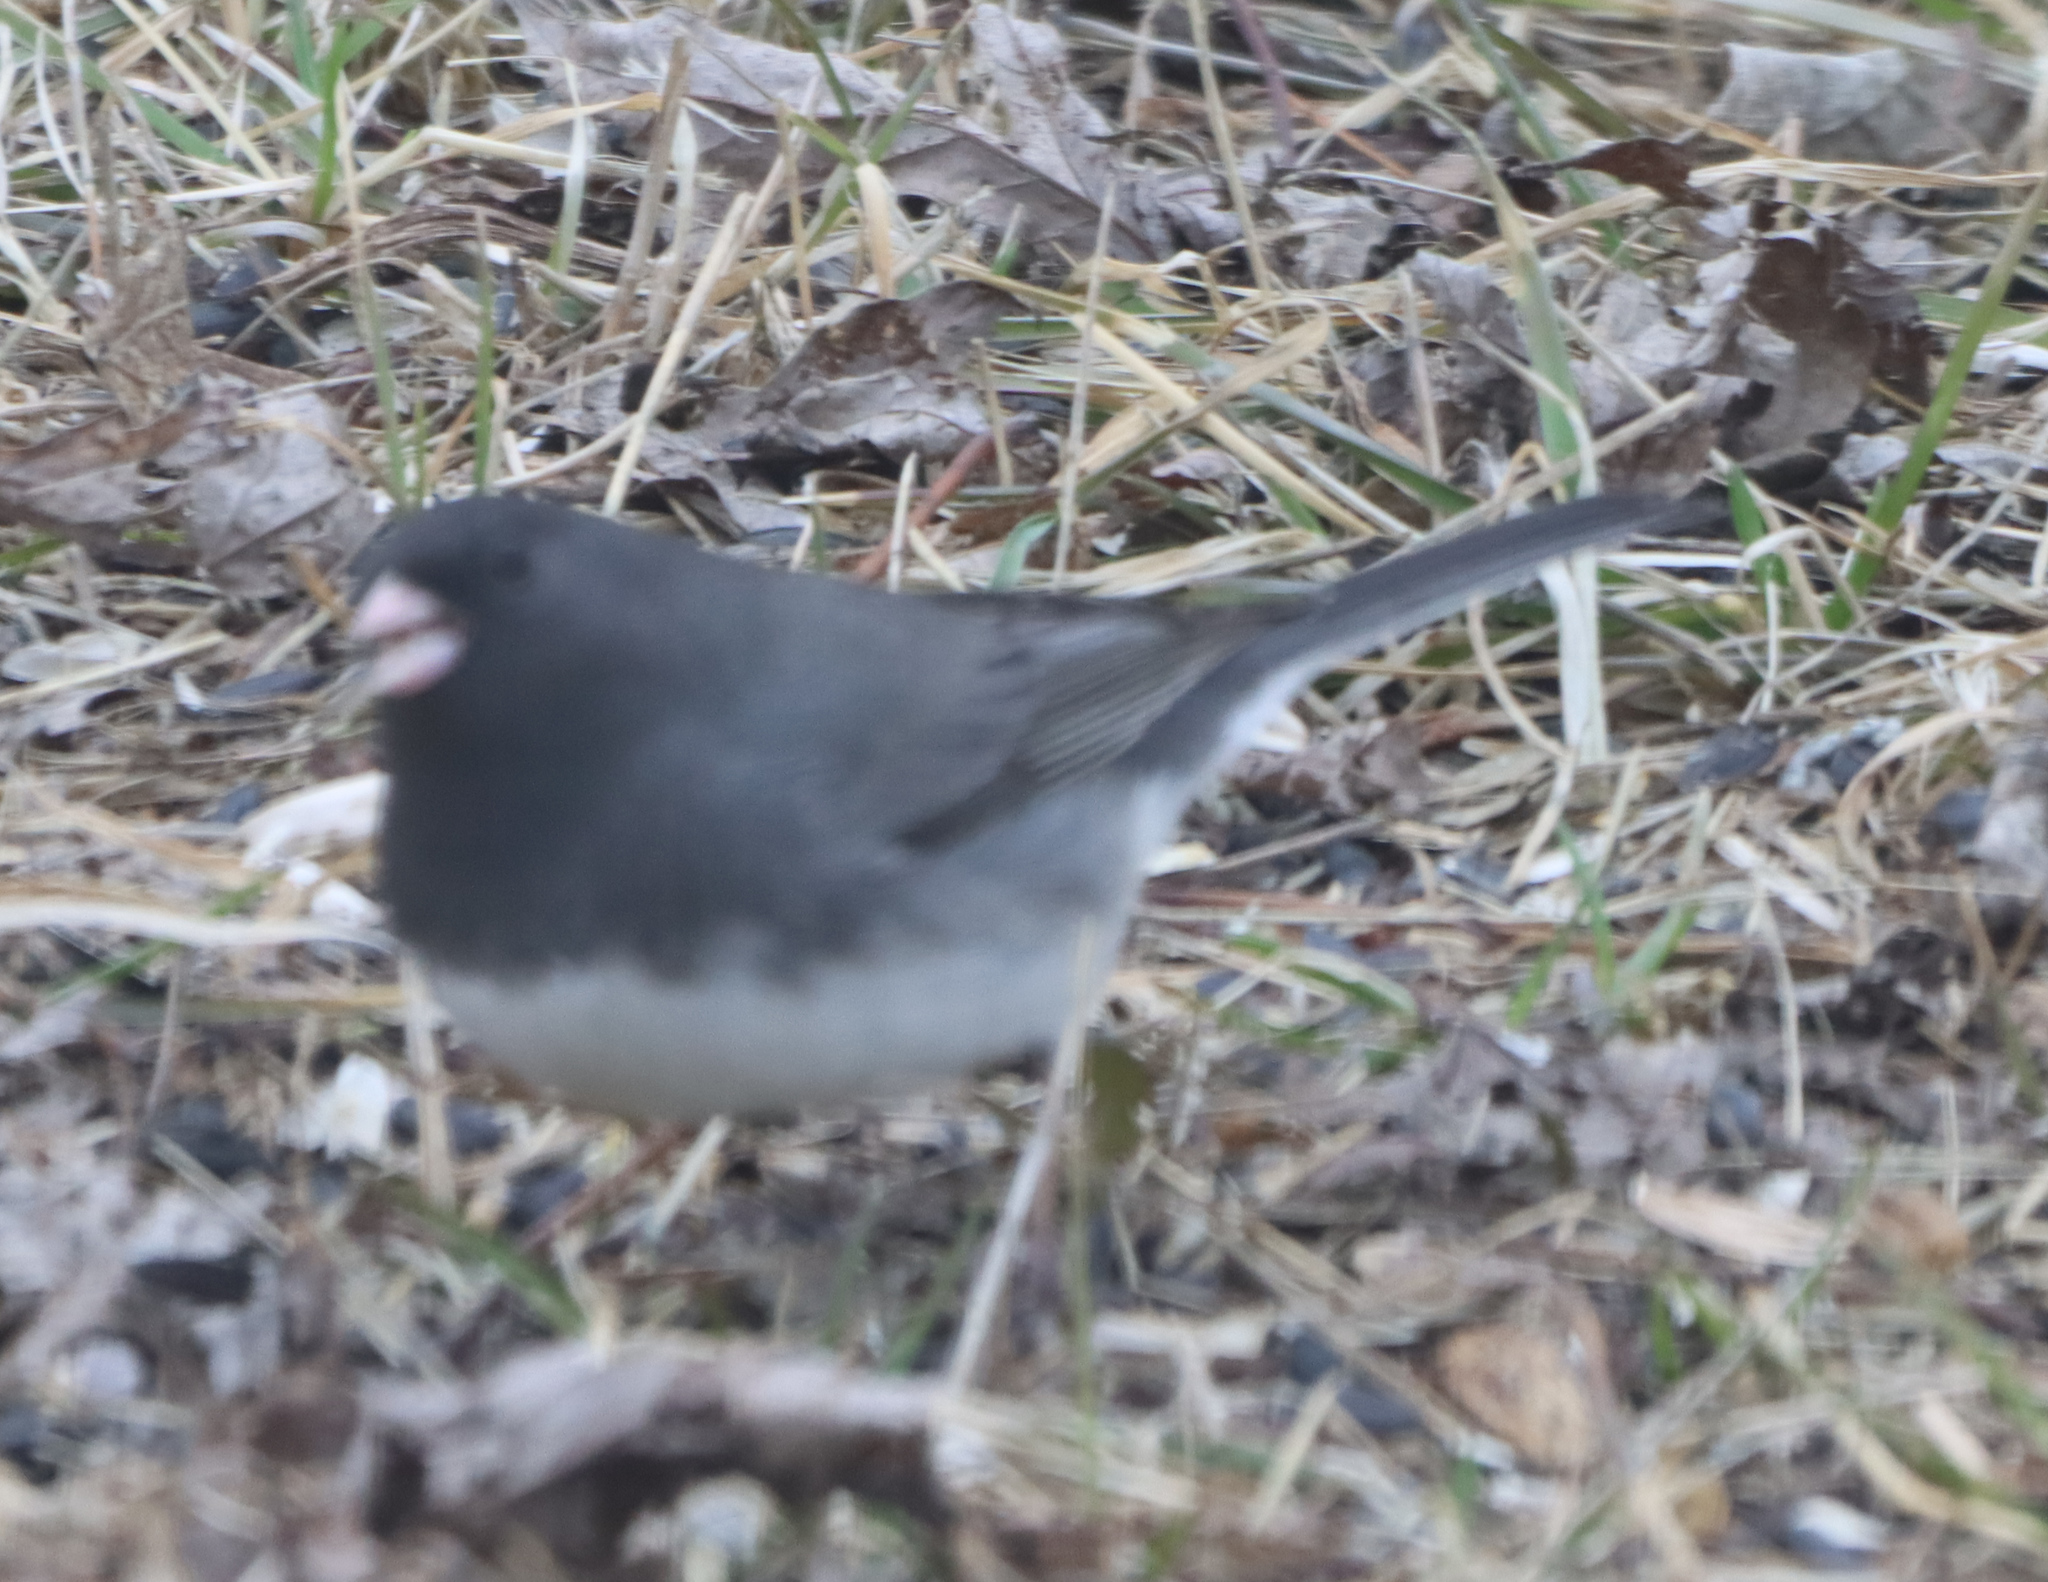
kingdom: Animalia
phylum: Chordata
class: Aves
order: Passeriformes
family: Passerellidae
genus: Junco
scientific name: Junco hyemalis
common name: Dark-eyed junco
